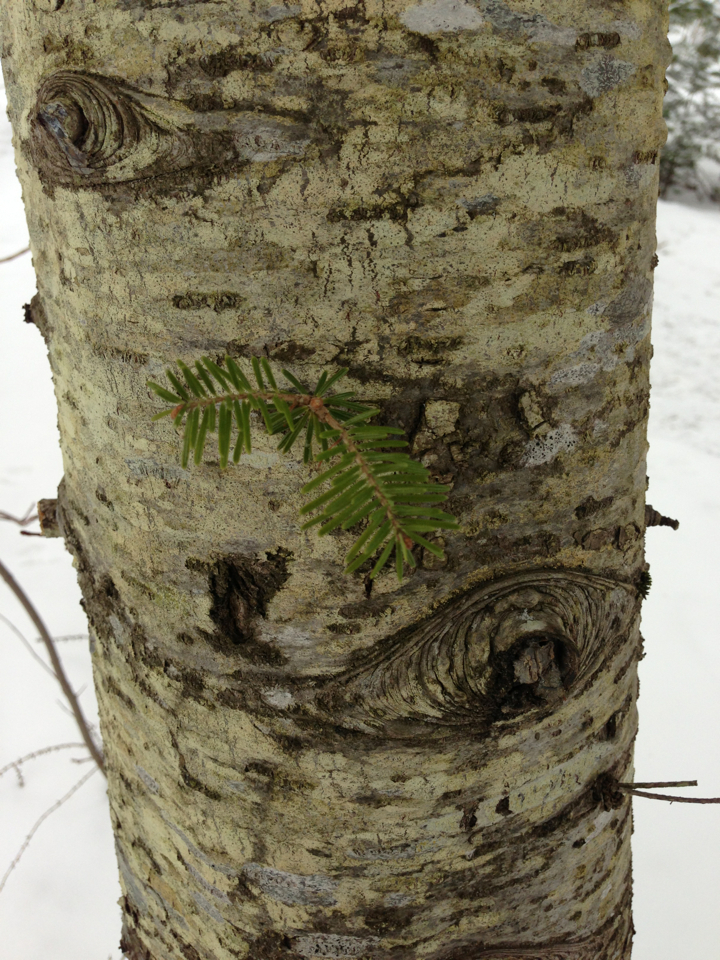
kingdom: Plantae
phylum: Tracheophyta
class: Pinopsida
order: Pinales
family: Pinaceae
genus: Abies
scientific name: Abies balsamea
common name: Balsam fir
